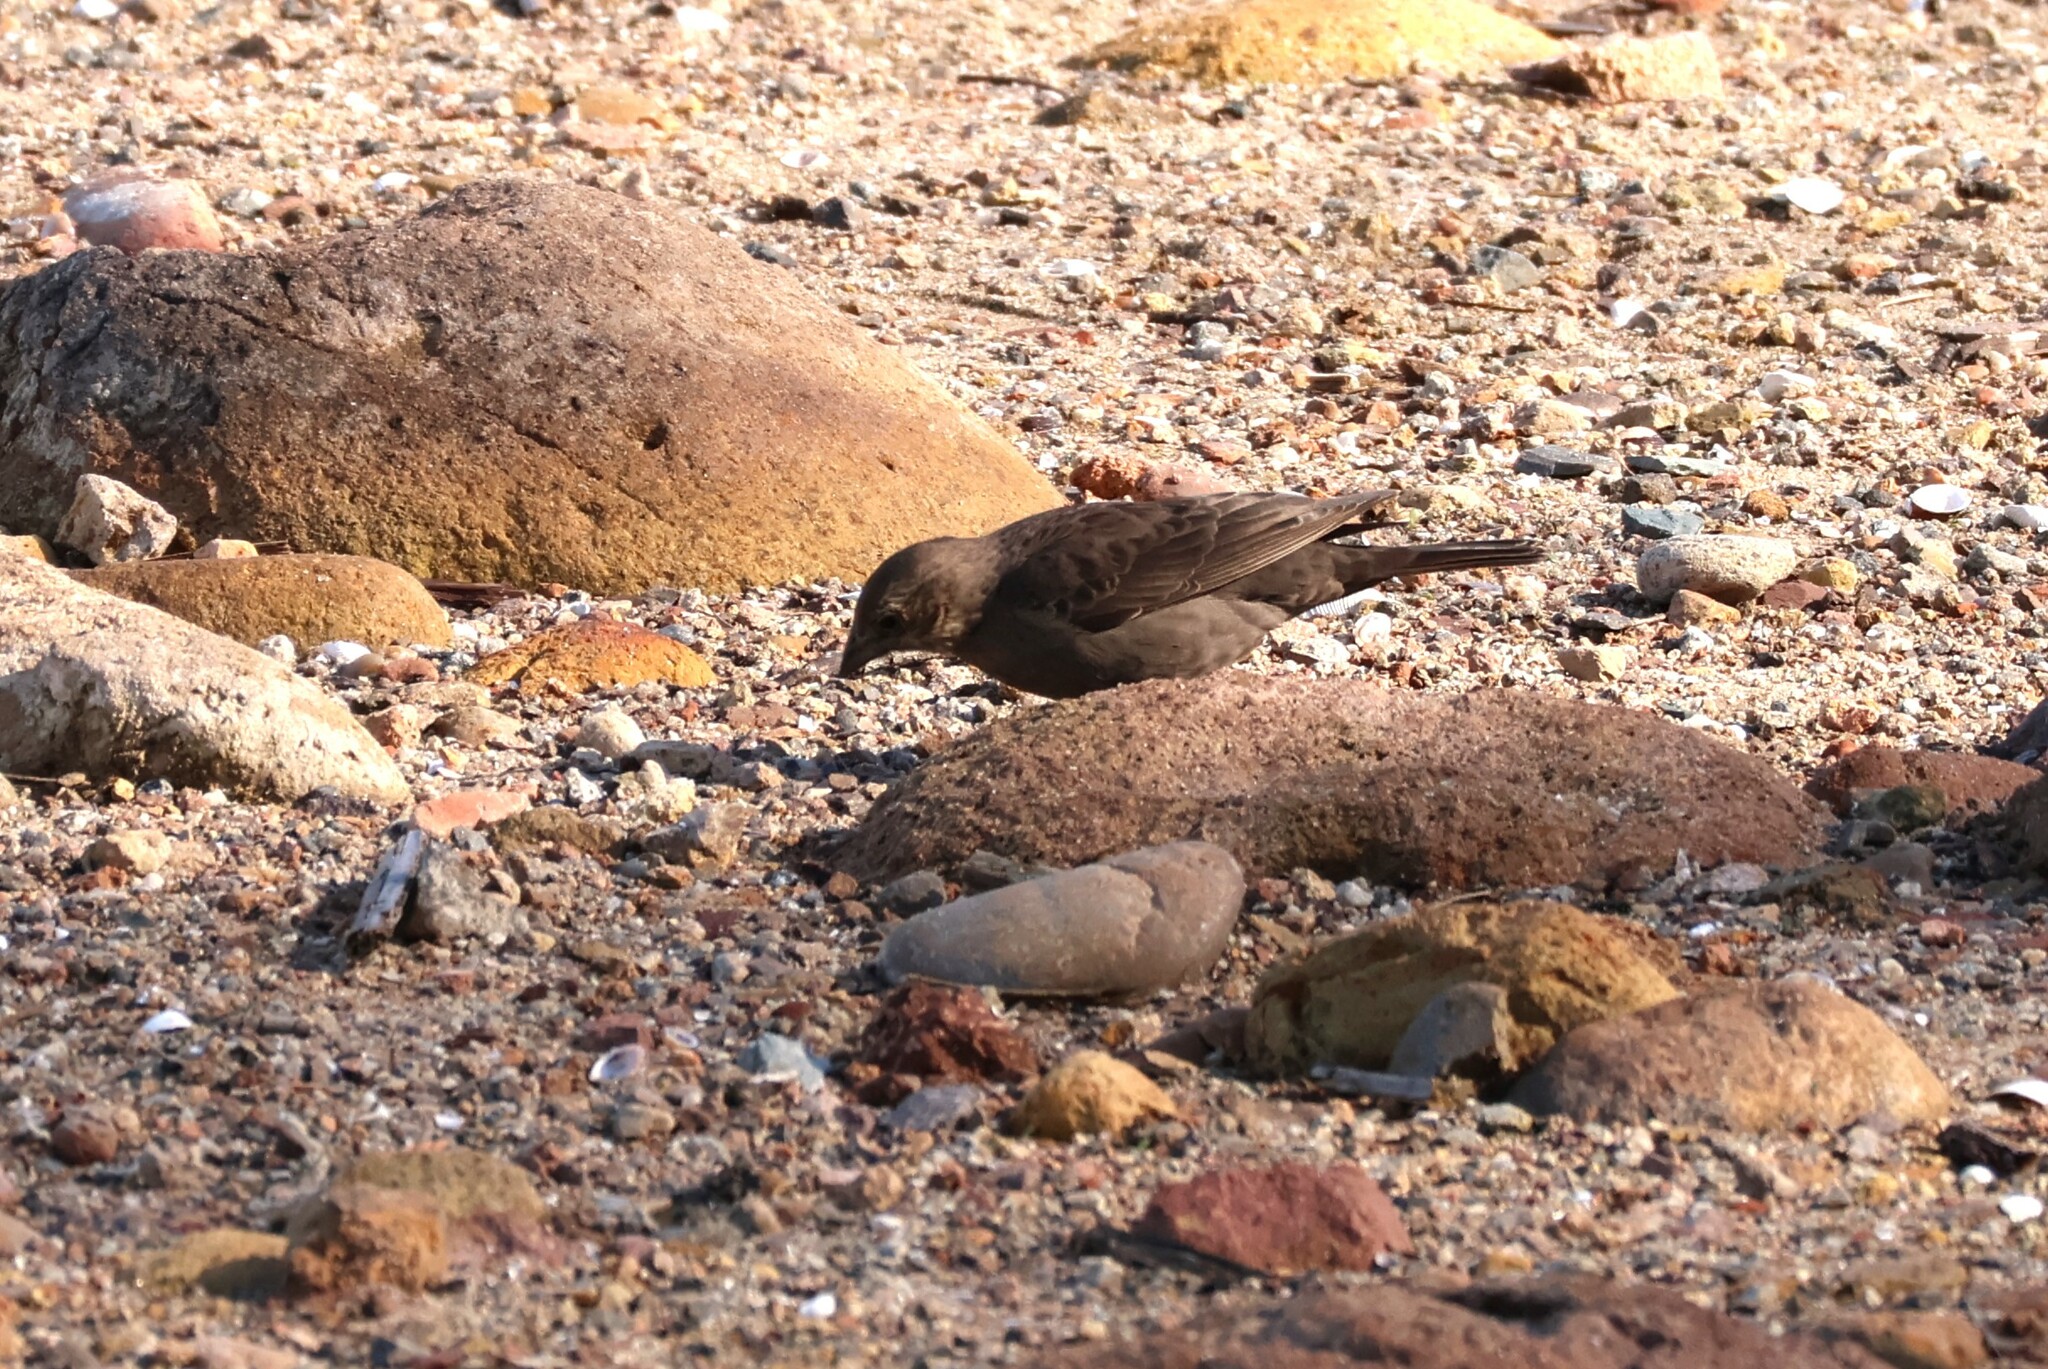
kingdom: Animalia
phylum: Chordata
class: Aves
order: Passeriformes
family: Icteridae
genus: Molothrus
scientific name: Molothrus ater
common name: Brown-headed cowbird
